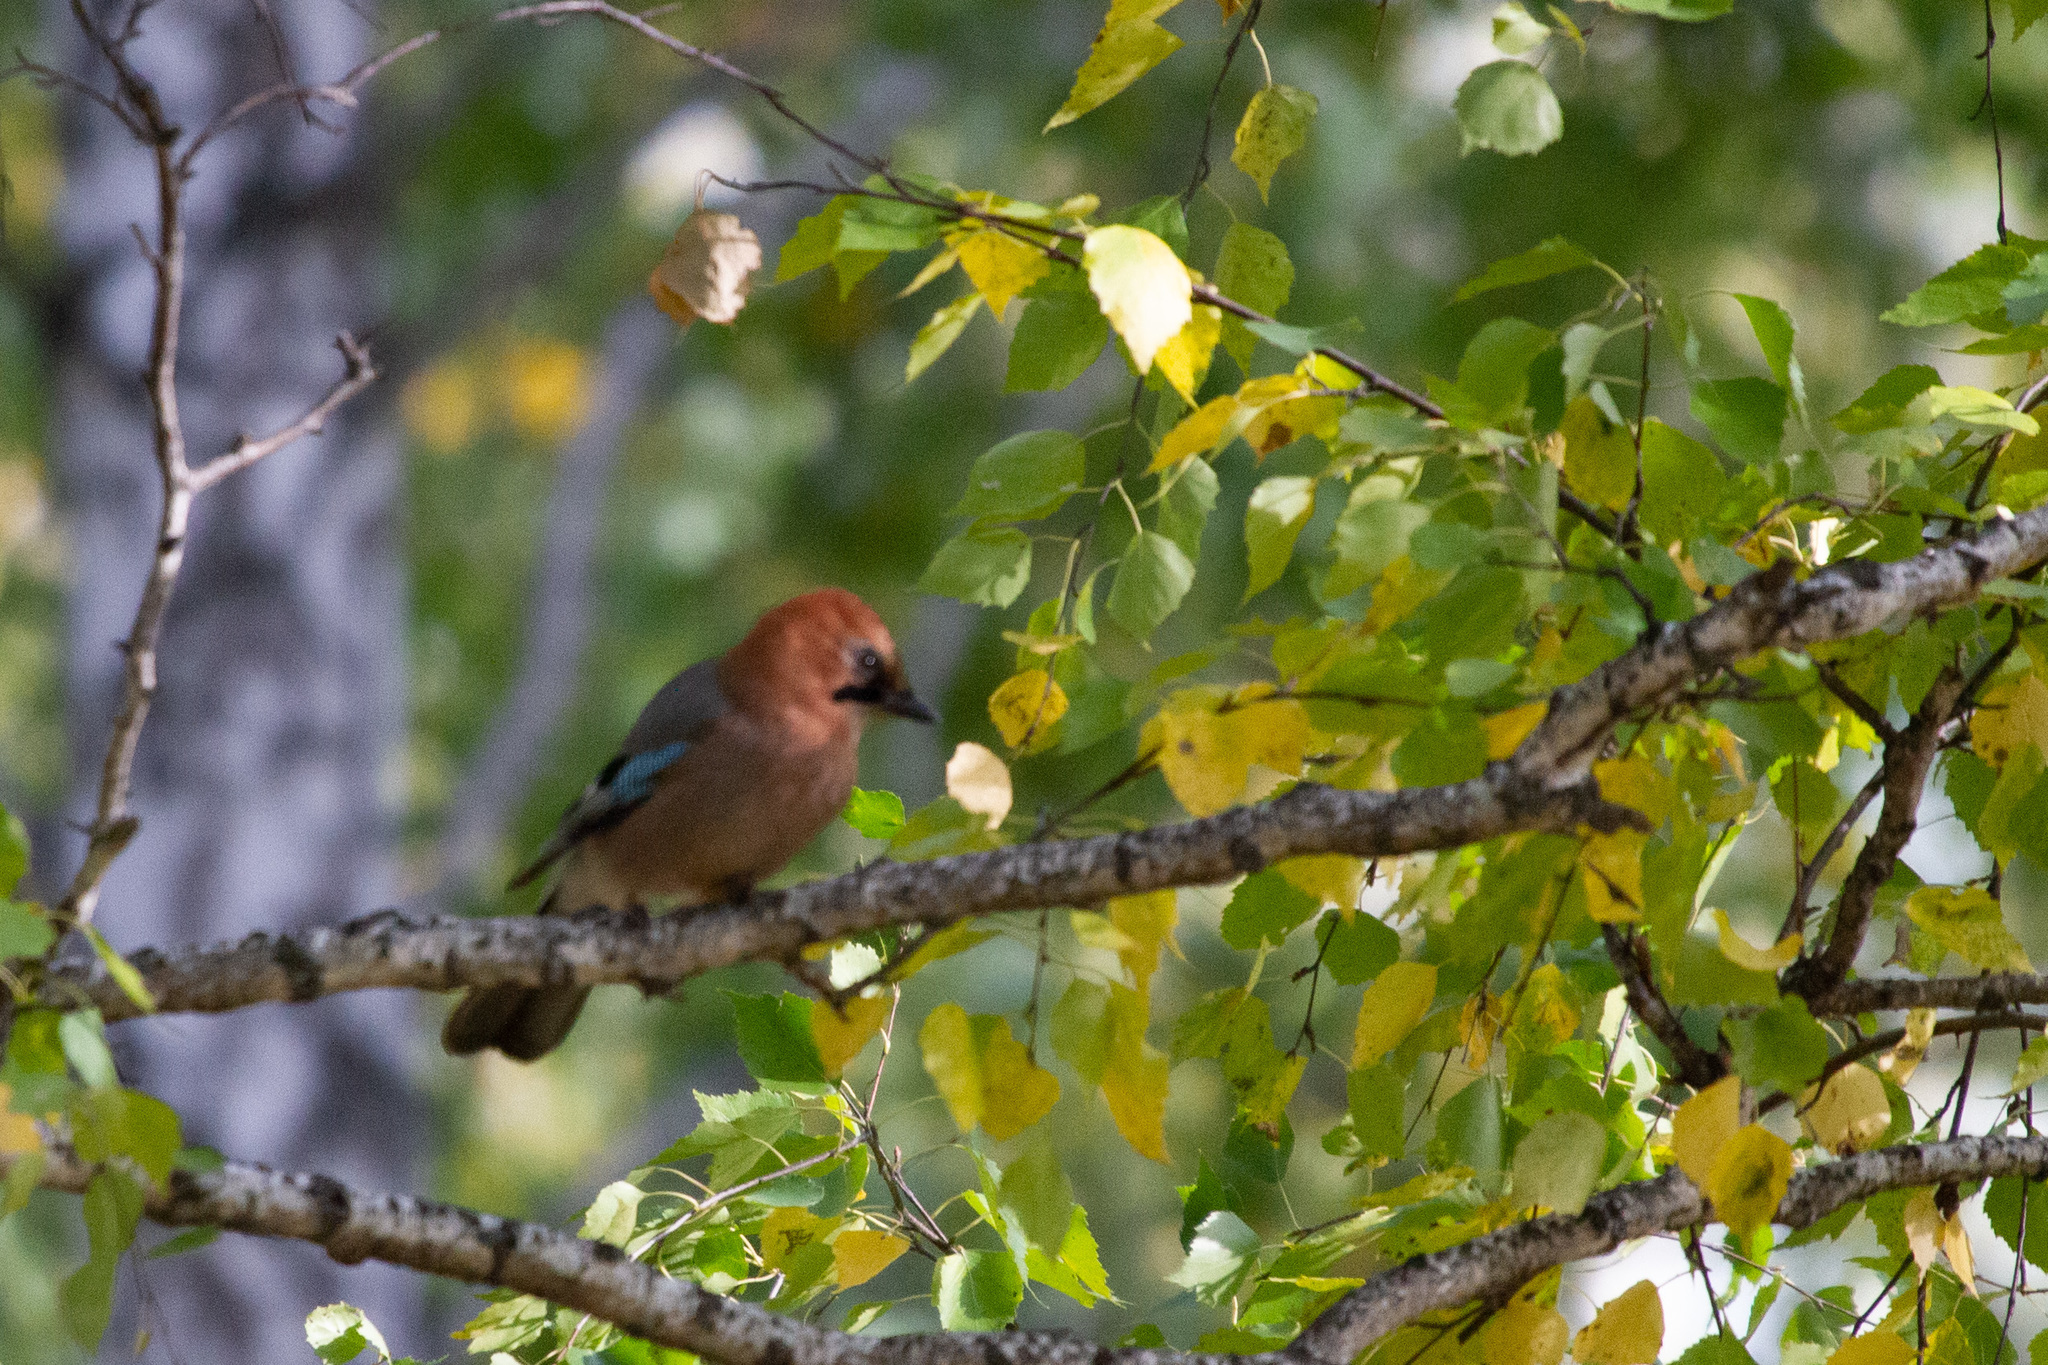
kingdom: Animalia
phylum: Chordata
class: Aves
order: Passeriformes
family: Corvidae
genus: Garrulus
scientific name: Garrulus glandarius
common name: Eurasian jay
